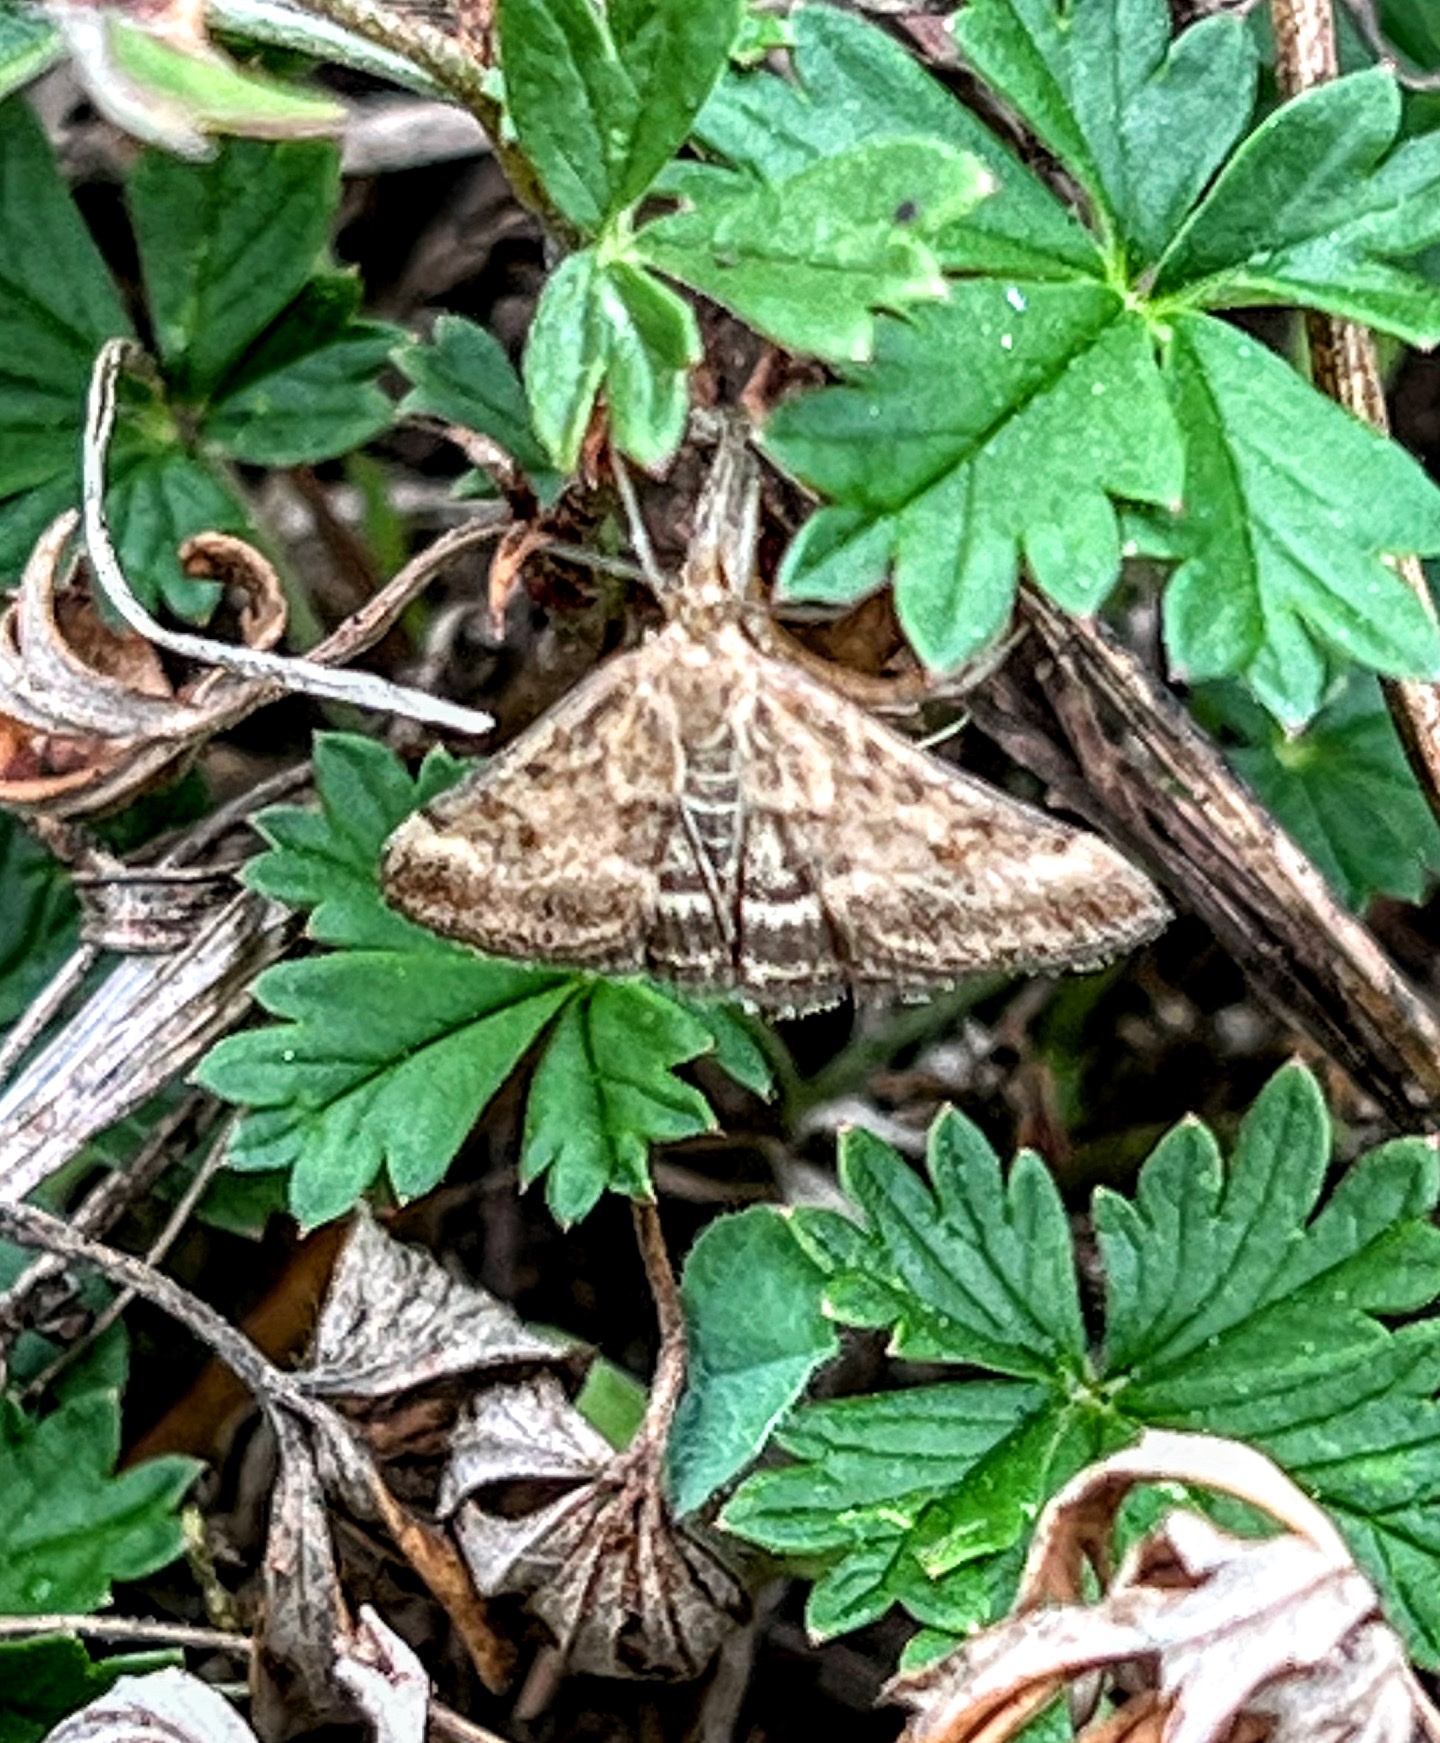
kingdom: Animalia
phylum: Arthropoda
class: Insecta
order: Lepidoptera
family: Crambidae
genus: Pyrausta
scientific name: Pyrausta despicata
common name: Straw-barred pearl
